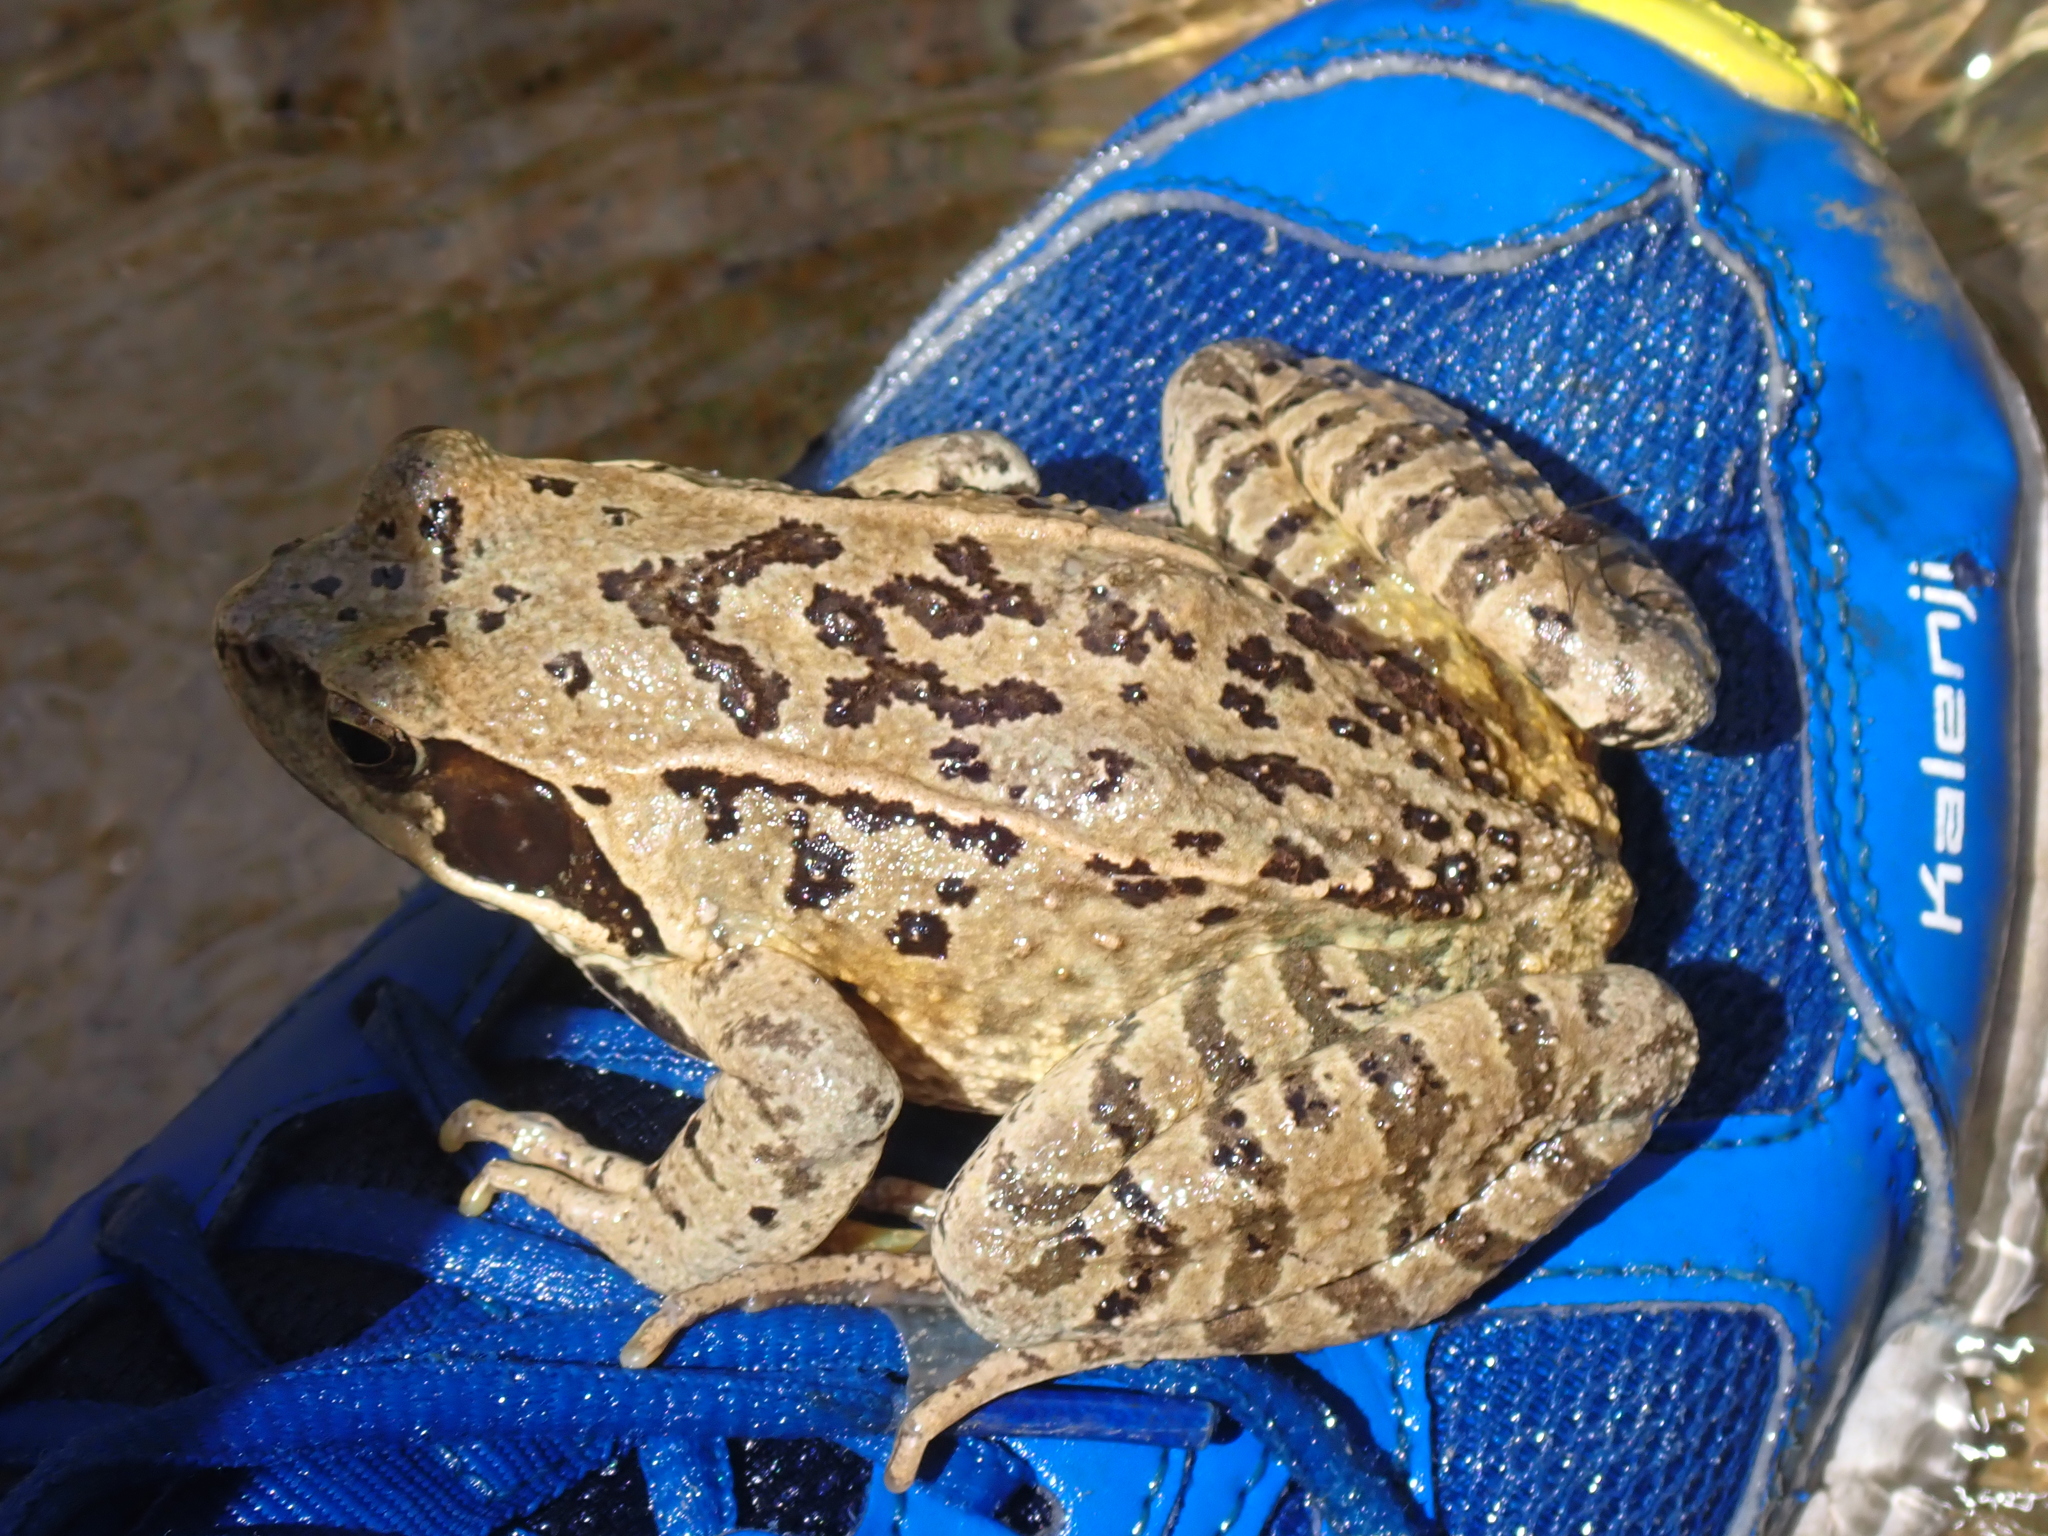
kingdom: Animalia
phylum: Chordata
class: Amphibia
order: Anura
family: Ranidae
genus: Rana
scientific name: Rana temporaria
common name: Common frog
